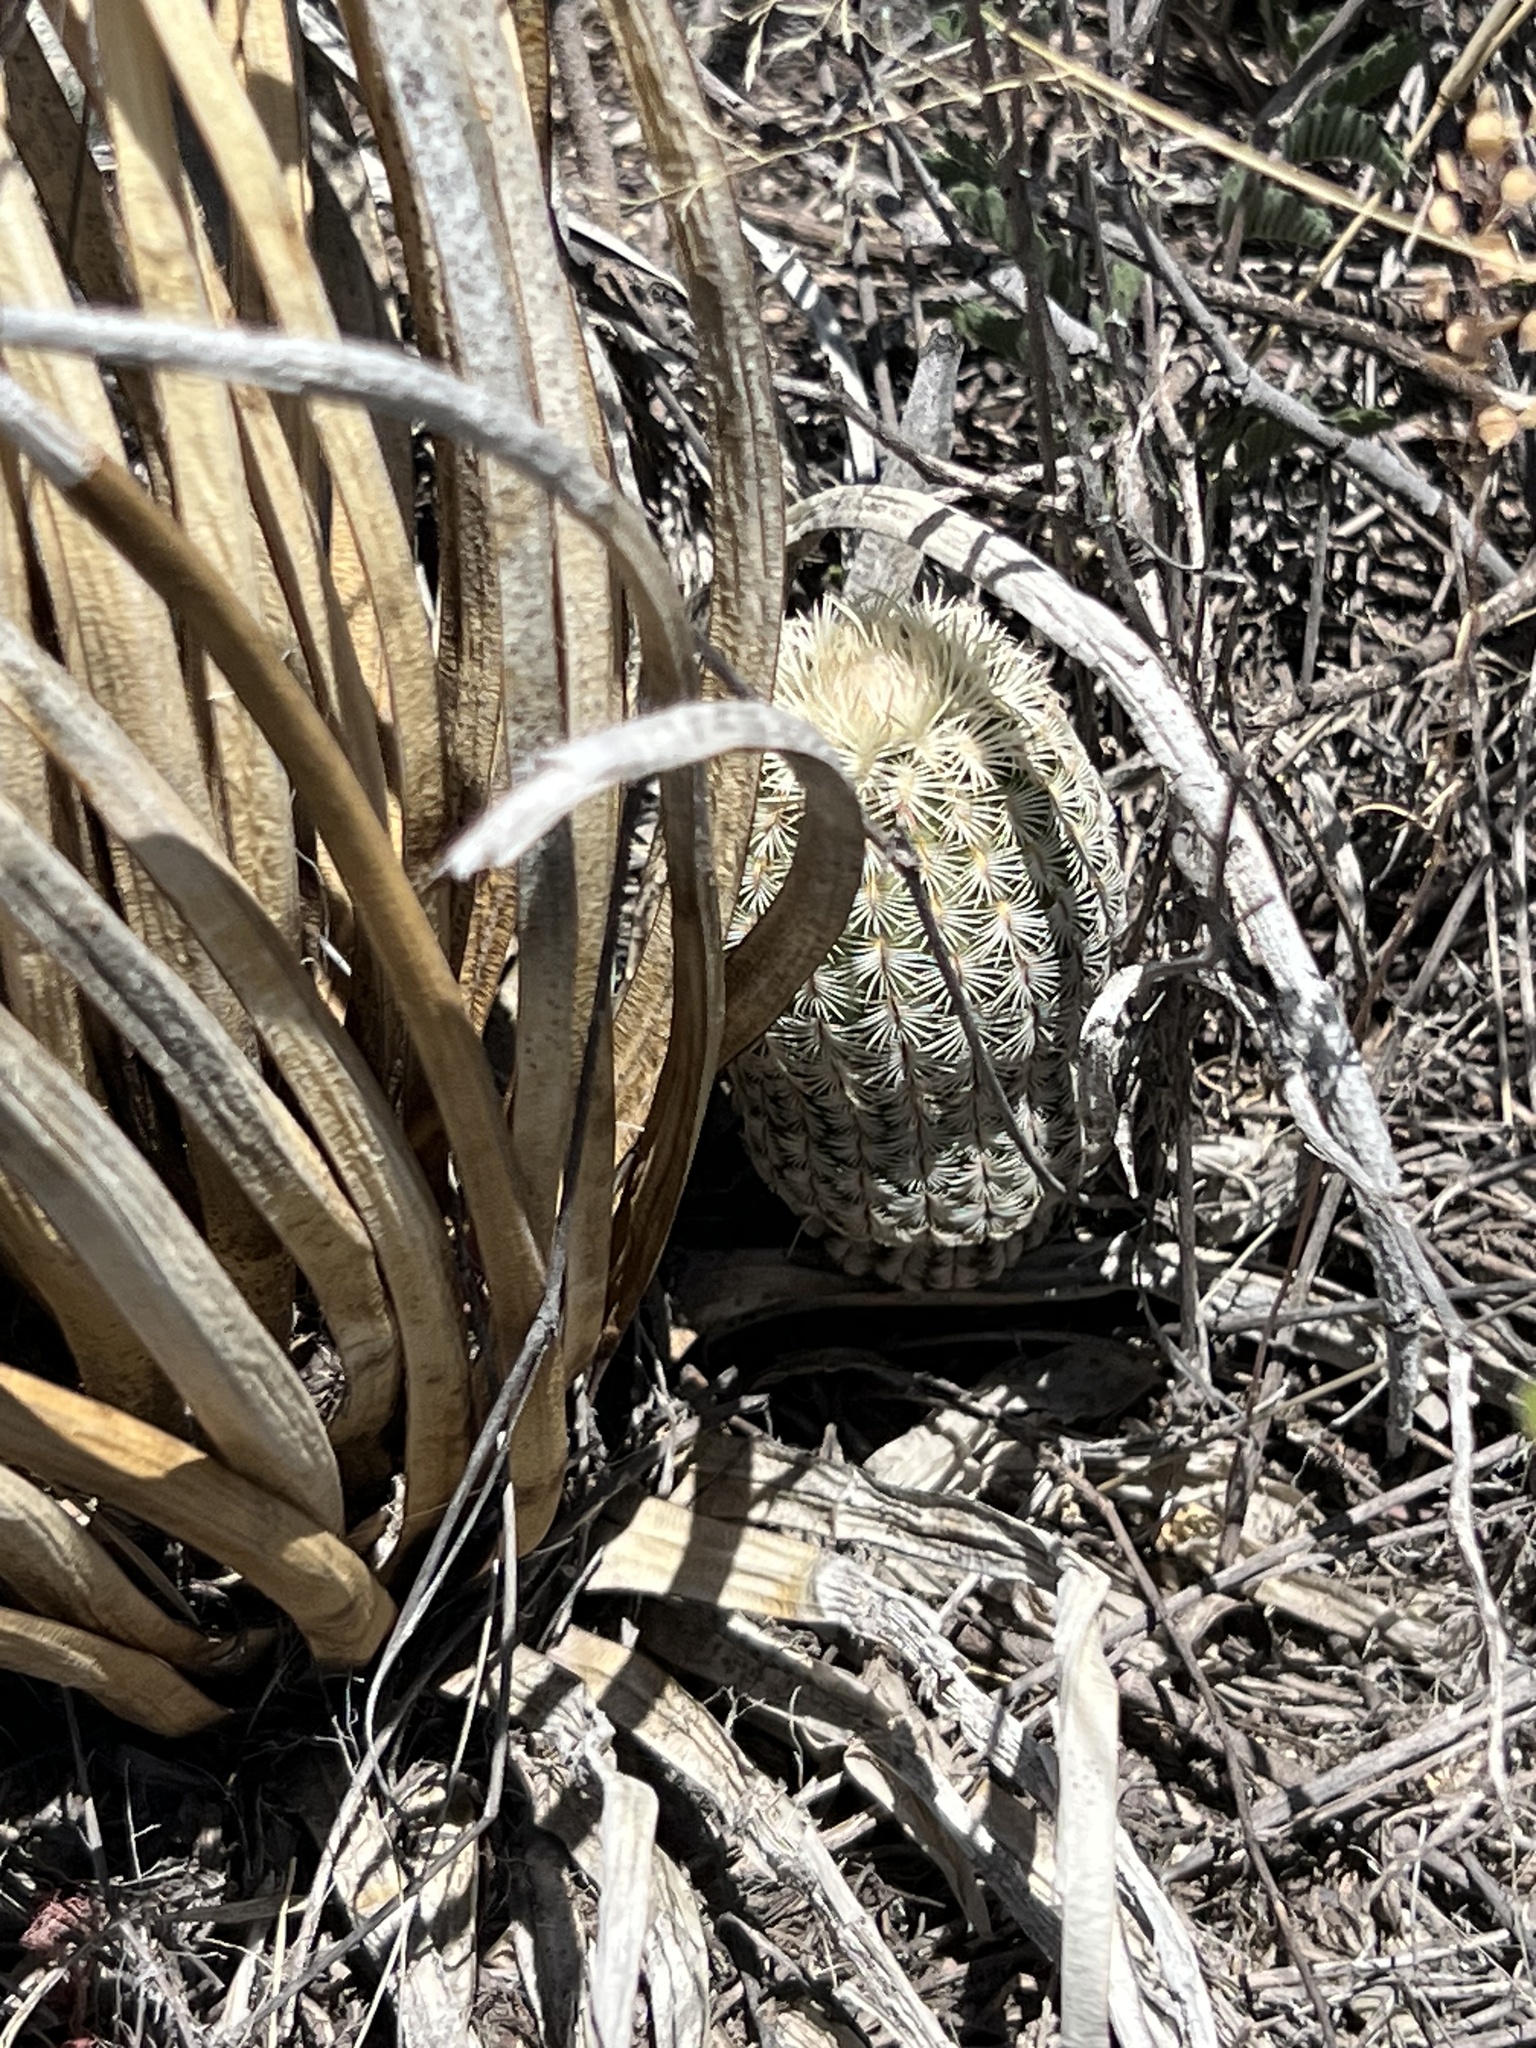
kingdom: Plantae
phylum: Tracheophyta
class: Magnoliopsida
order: Caryophyllales
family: Cactaceae
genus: Echinocereus
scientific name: Echinocereus rigidissimus
